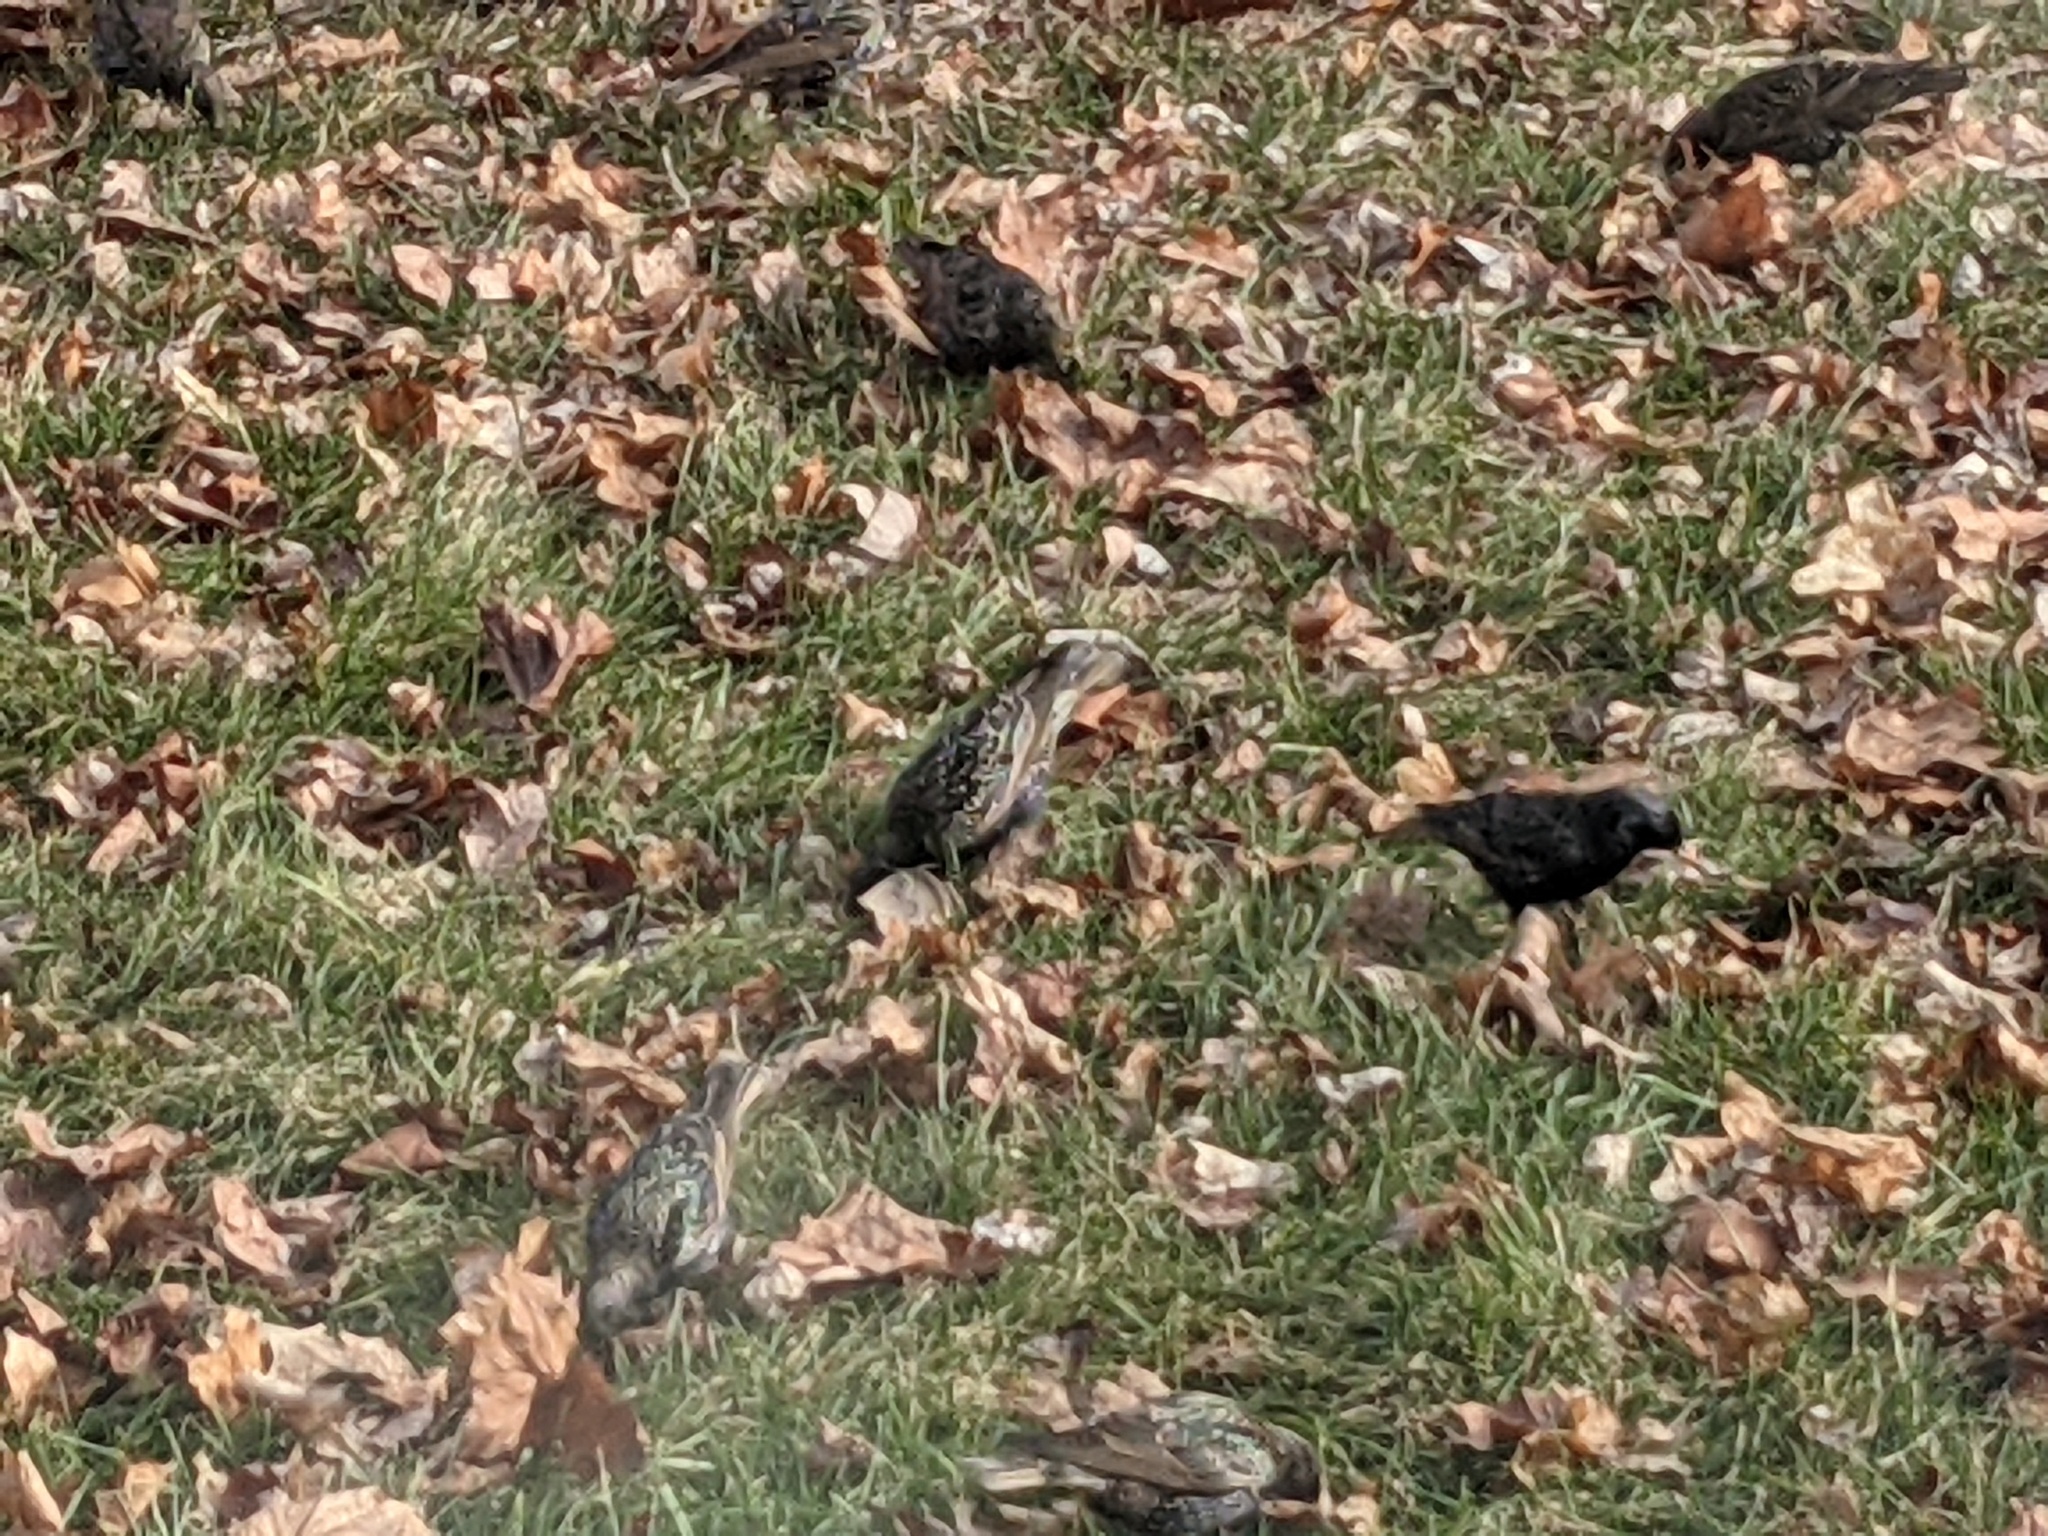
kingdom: Animalia
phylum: Chordata
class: Aves
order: Passeriformes
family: Sturnidae
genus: Sturnus
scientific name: Sturnus vulgaris
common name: Common starling
